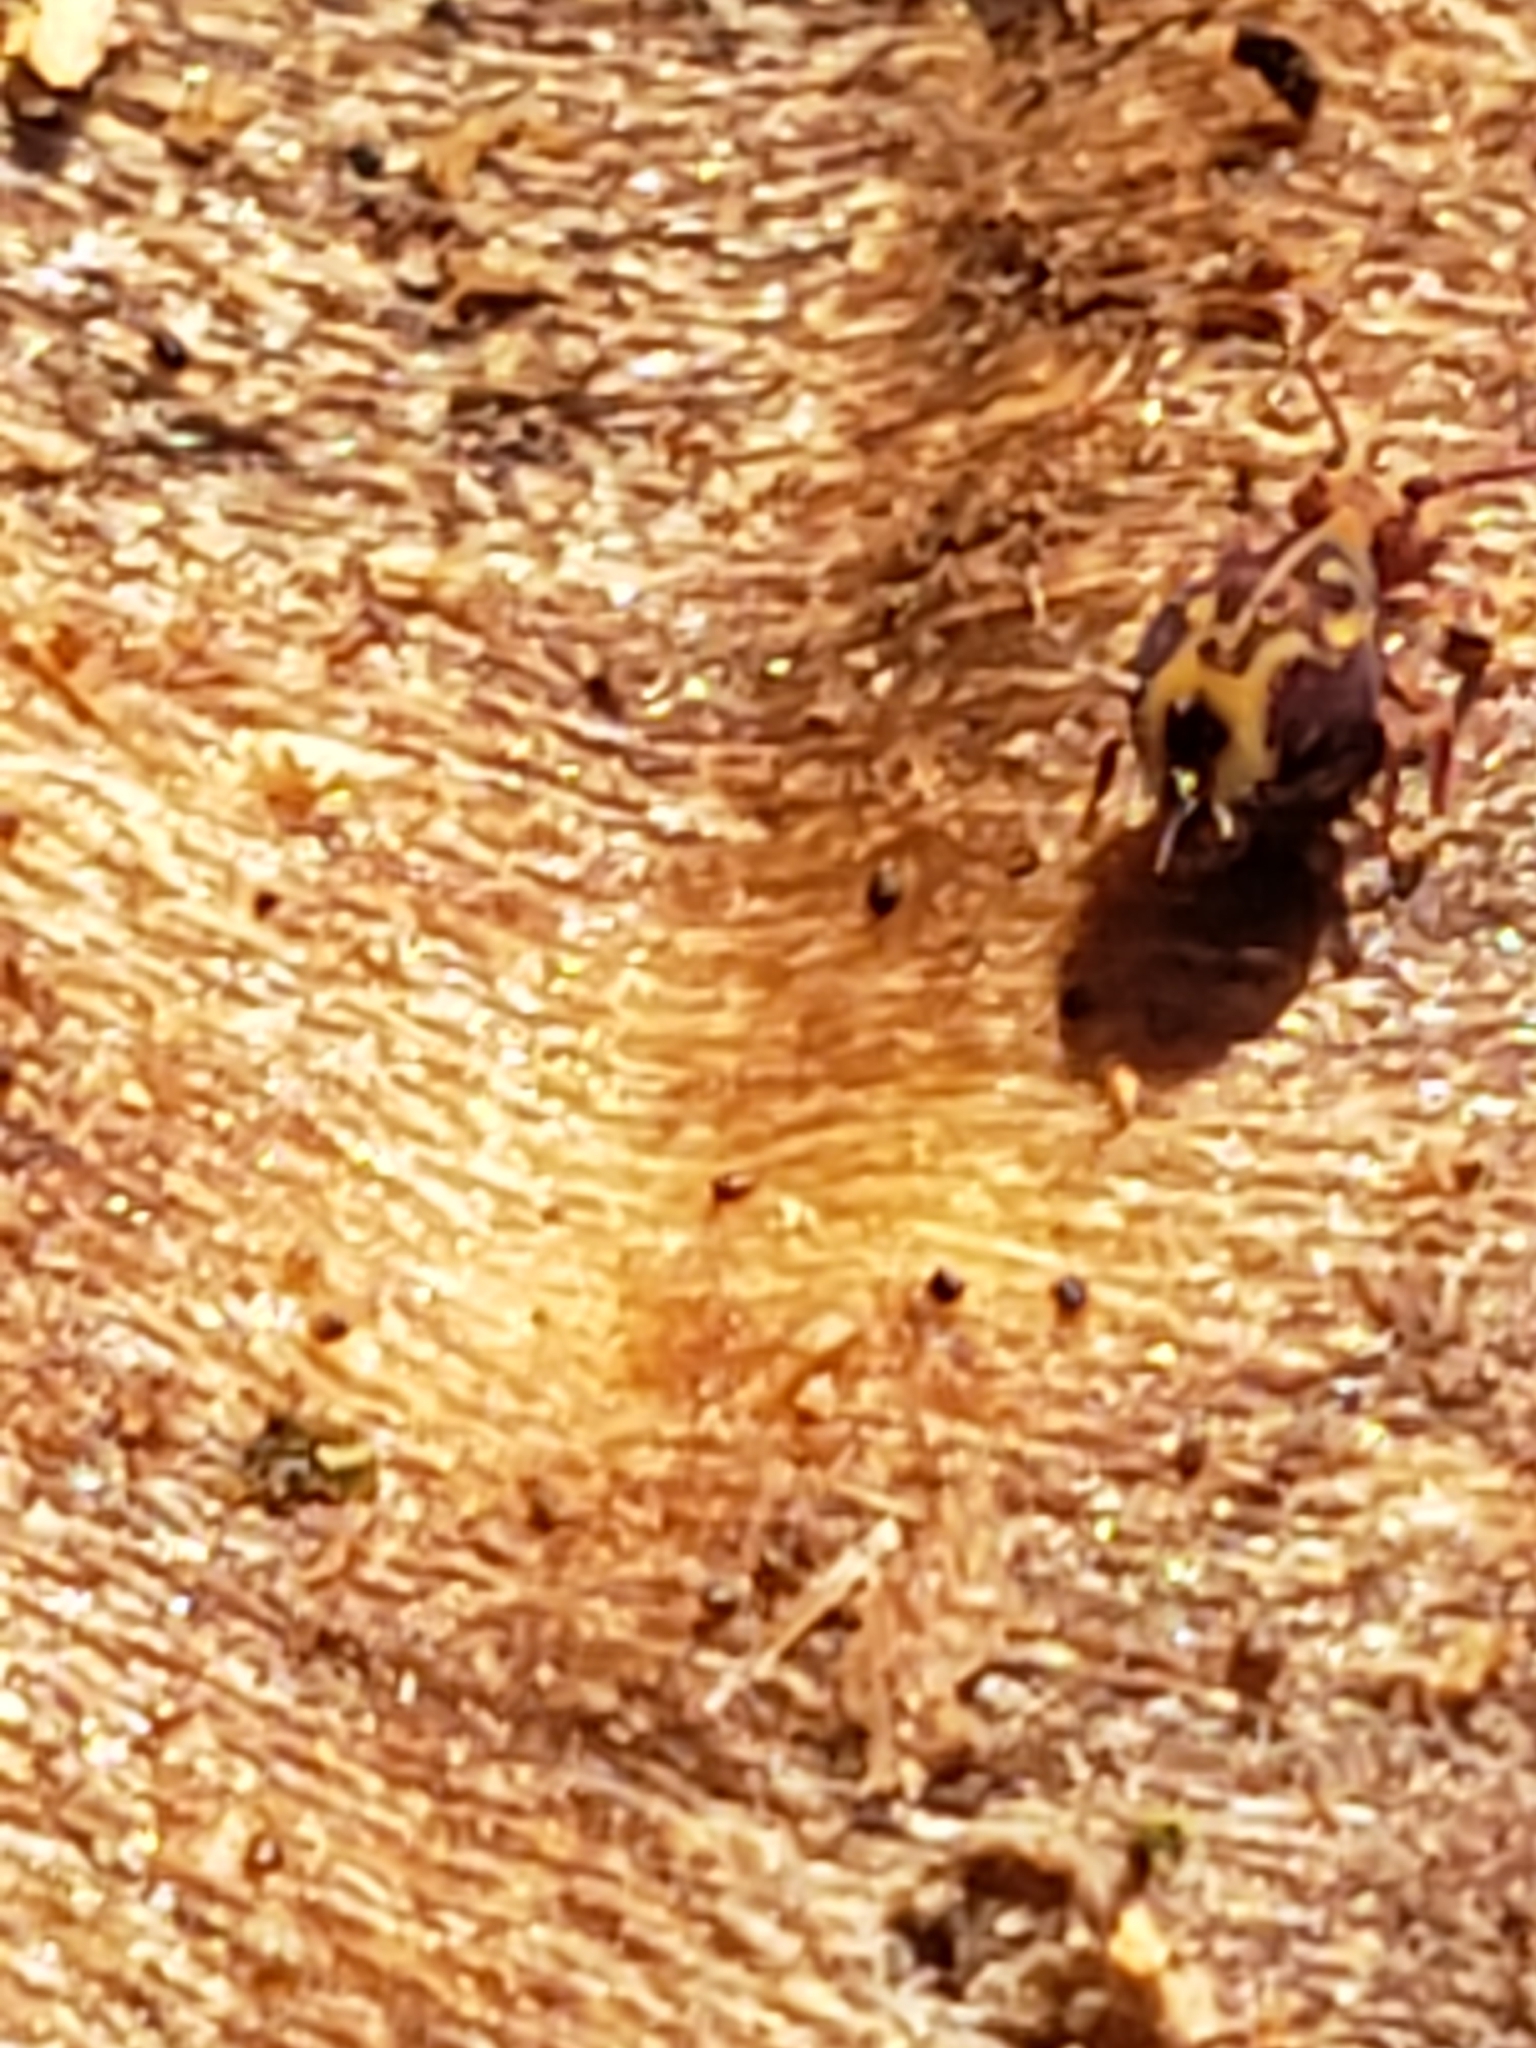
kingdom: Animalia
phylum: Arthropoda
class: Collembola
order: Symphypleona
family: Dicyrtomidae
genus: Dicyrtomina
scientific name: Dicyrtomina minuta
